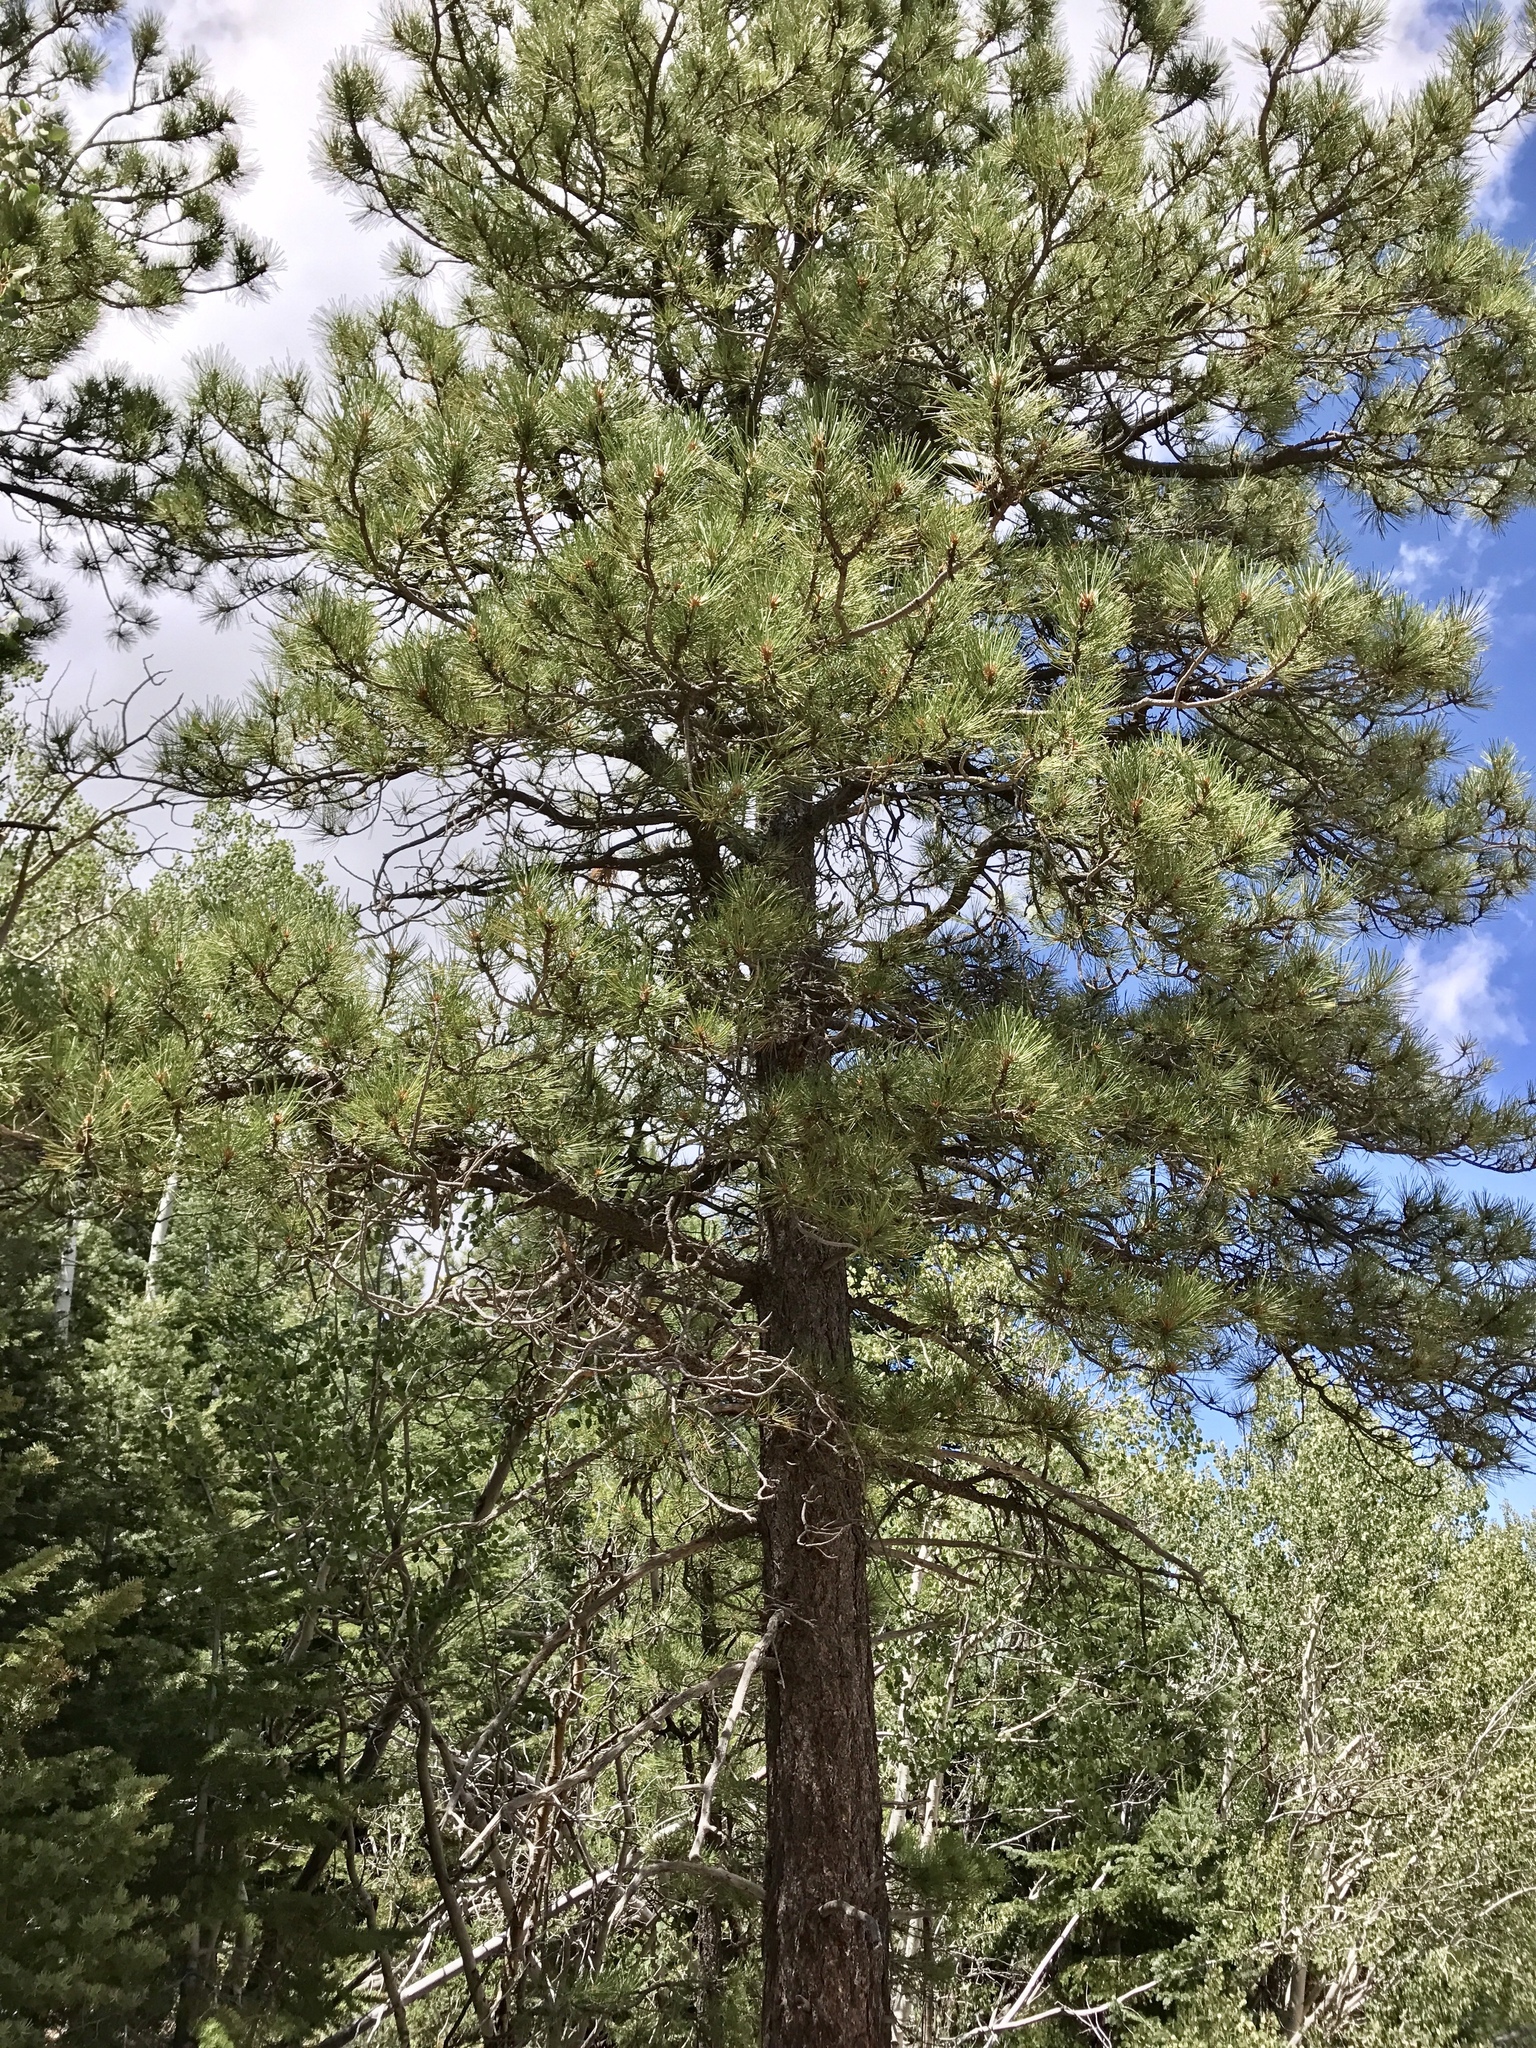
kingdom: Plantae
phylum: Tracheophyta
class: Pinopsida
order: Pinales
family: Pinaceae
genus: Pinus
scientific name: Pinus ponderosa
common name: Western yellow-pine
